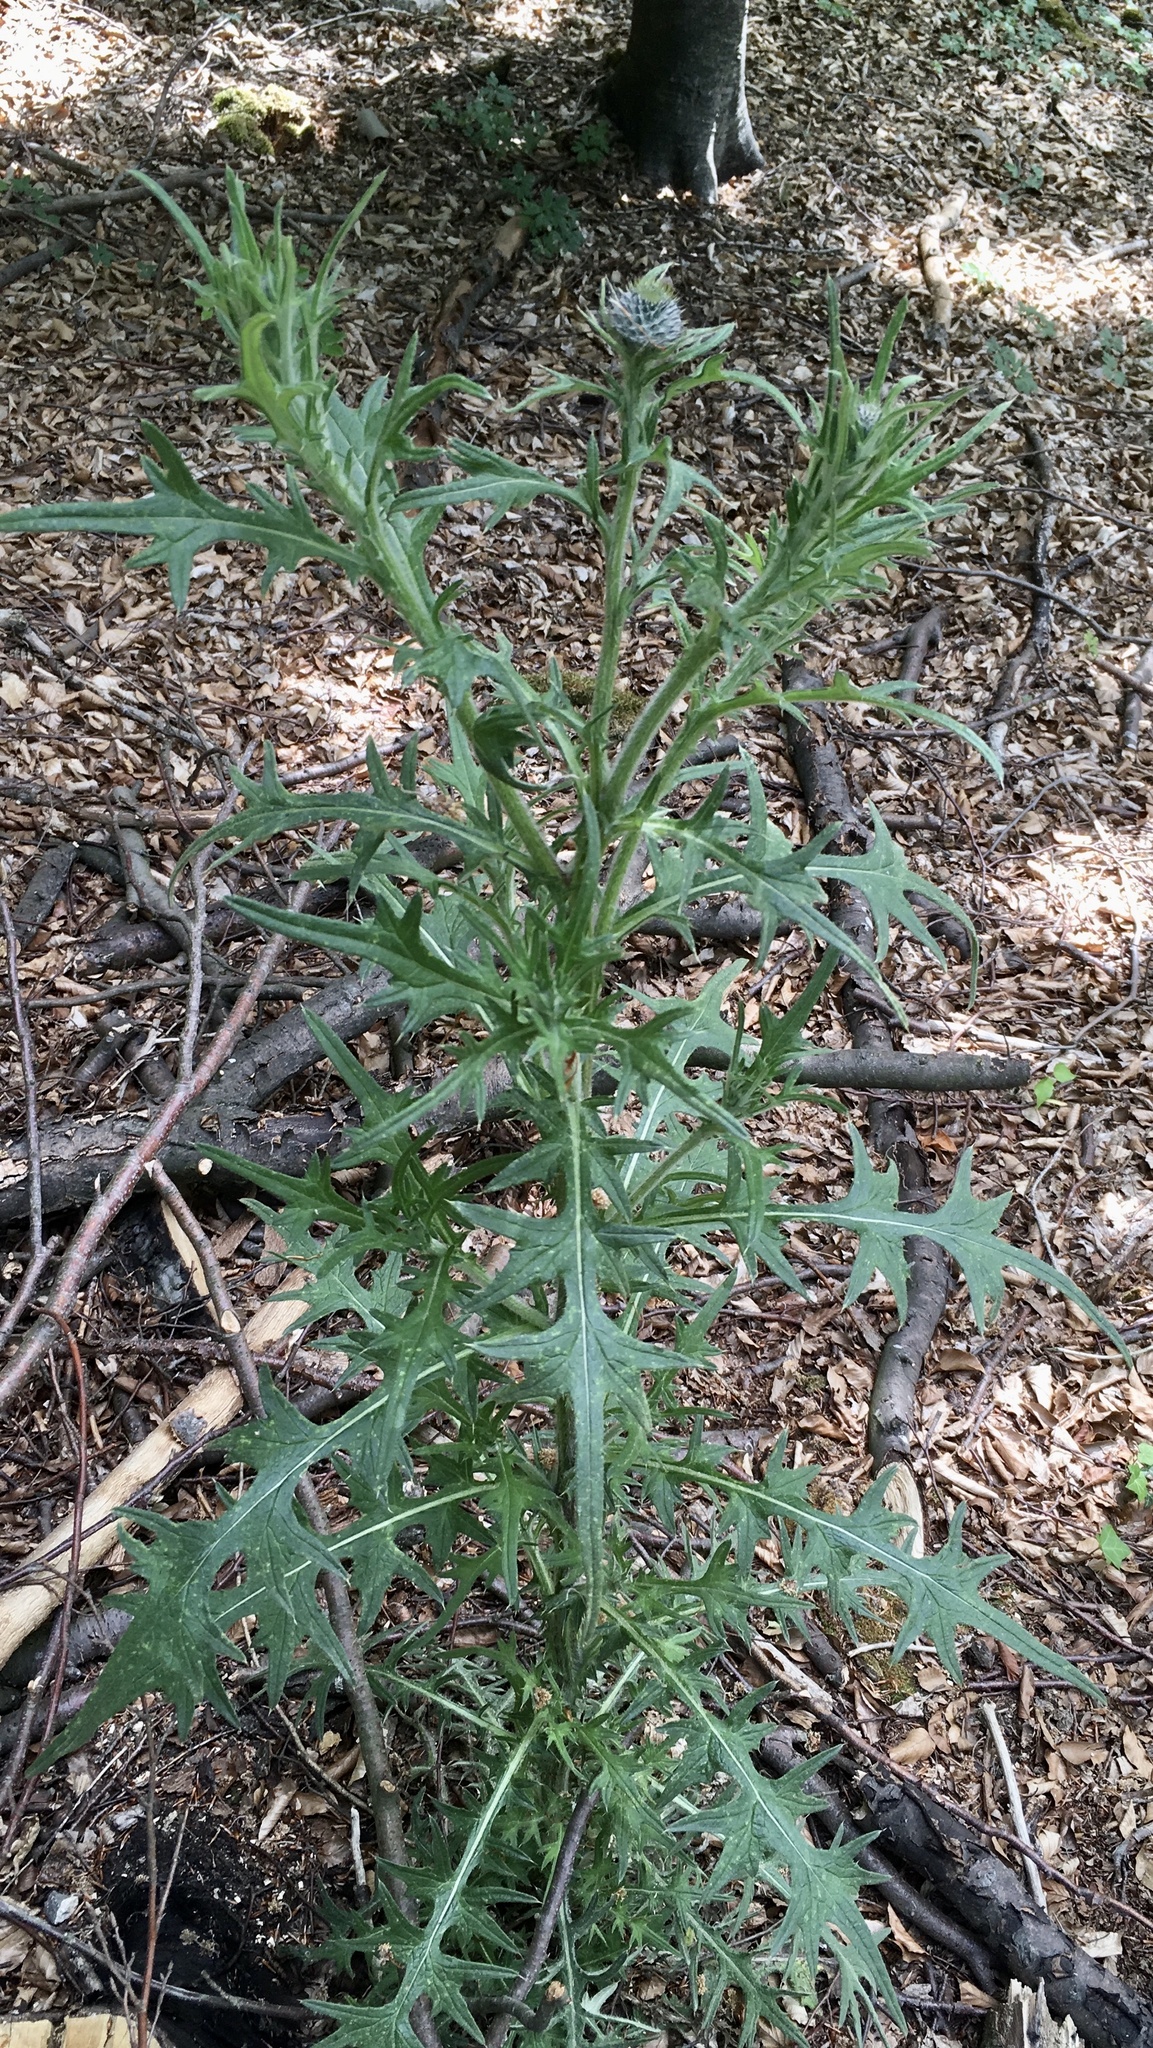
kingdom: Plantae
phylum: Tracheophyta
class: Magnoliopsida
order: Asterales
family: Asteraceae
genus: Cirsium
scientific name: Cirsium vulgare
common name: Bull thistle
